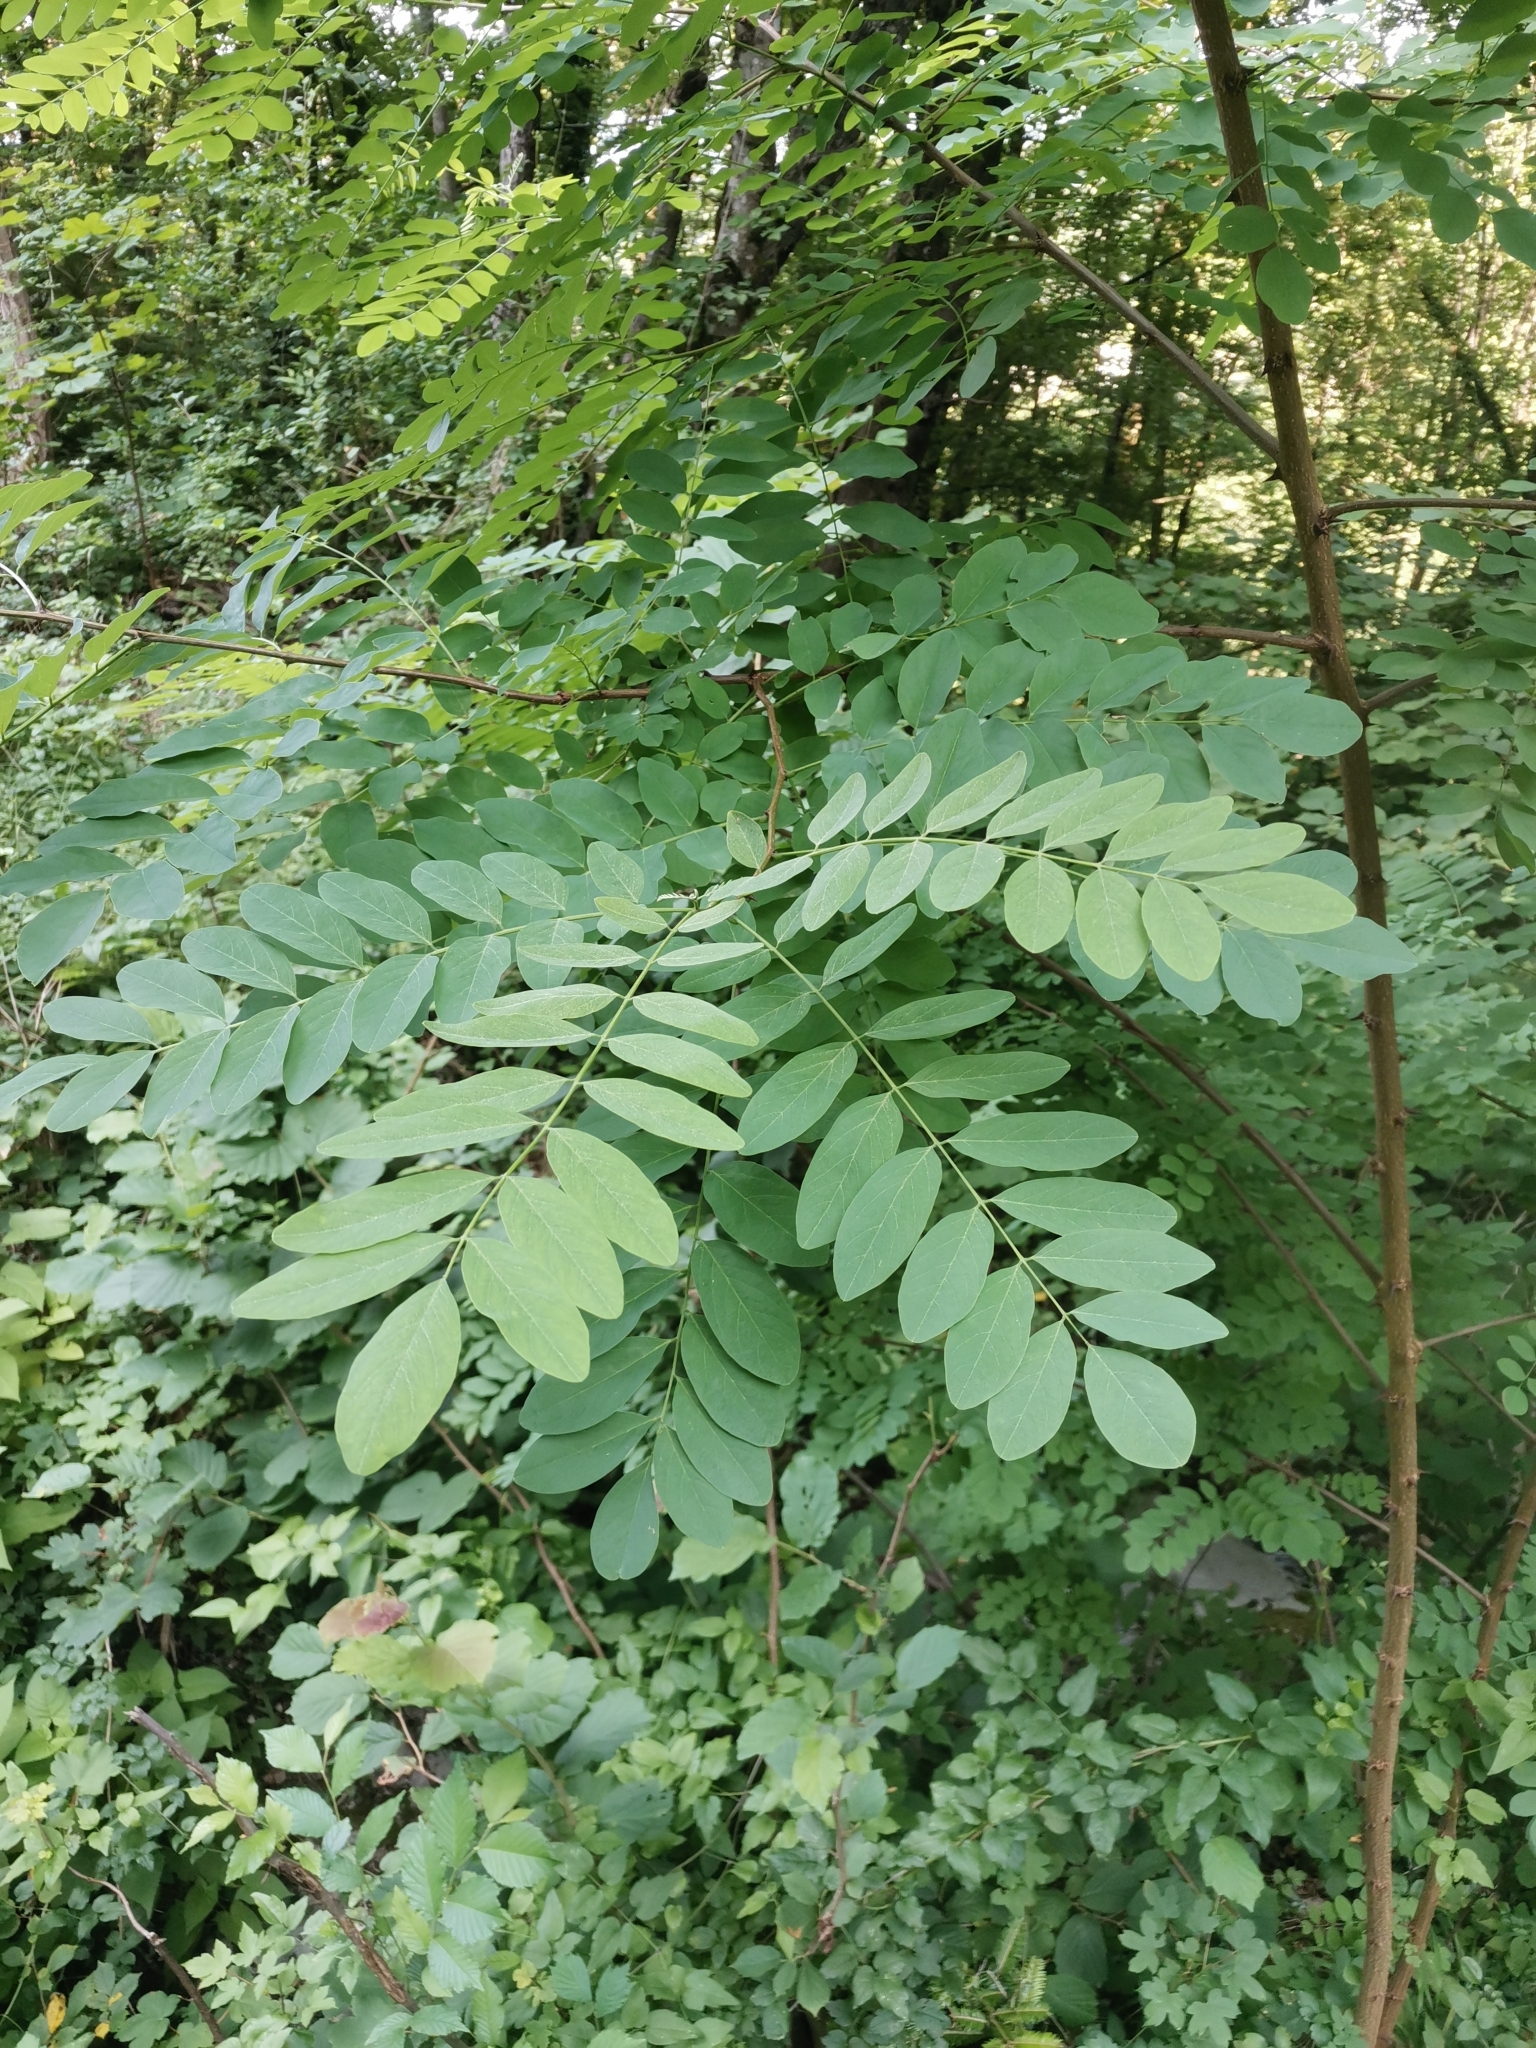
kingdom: Plantae
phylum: Tracheophyta
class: Magnoliopsida
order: Fabales
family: Fabaceae
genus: Robinia
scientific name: Robinia pseudoacacia
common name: Black locust
